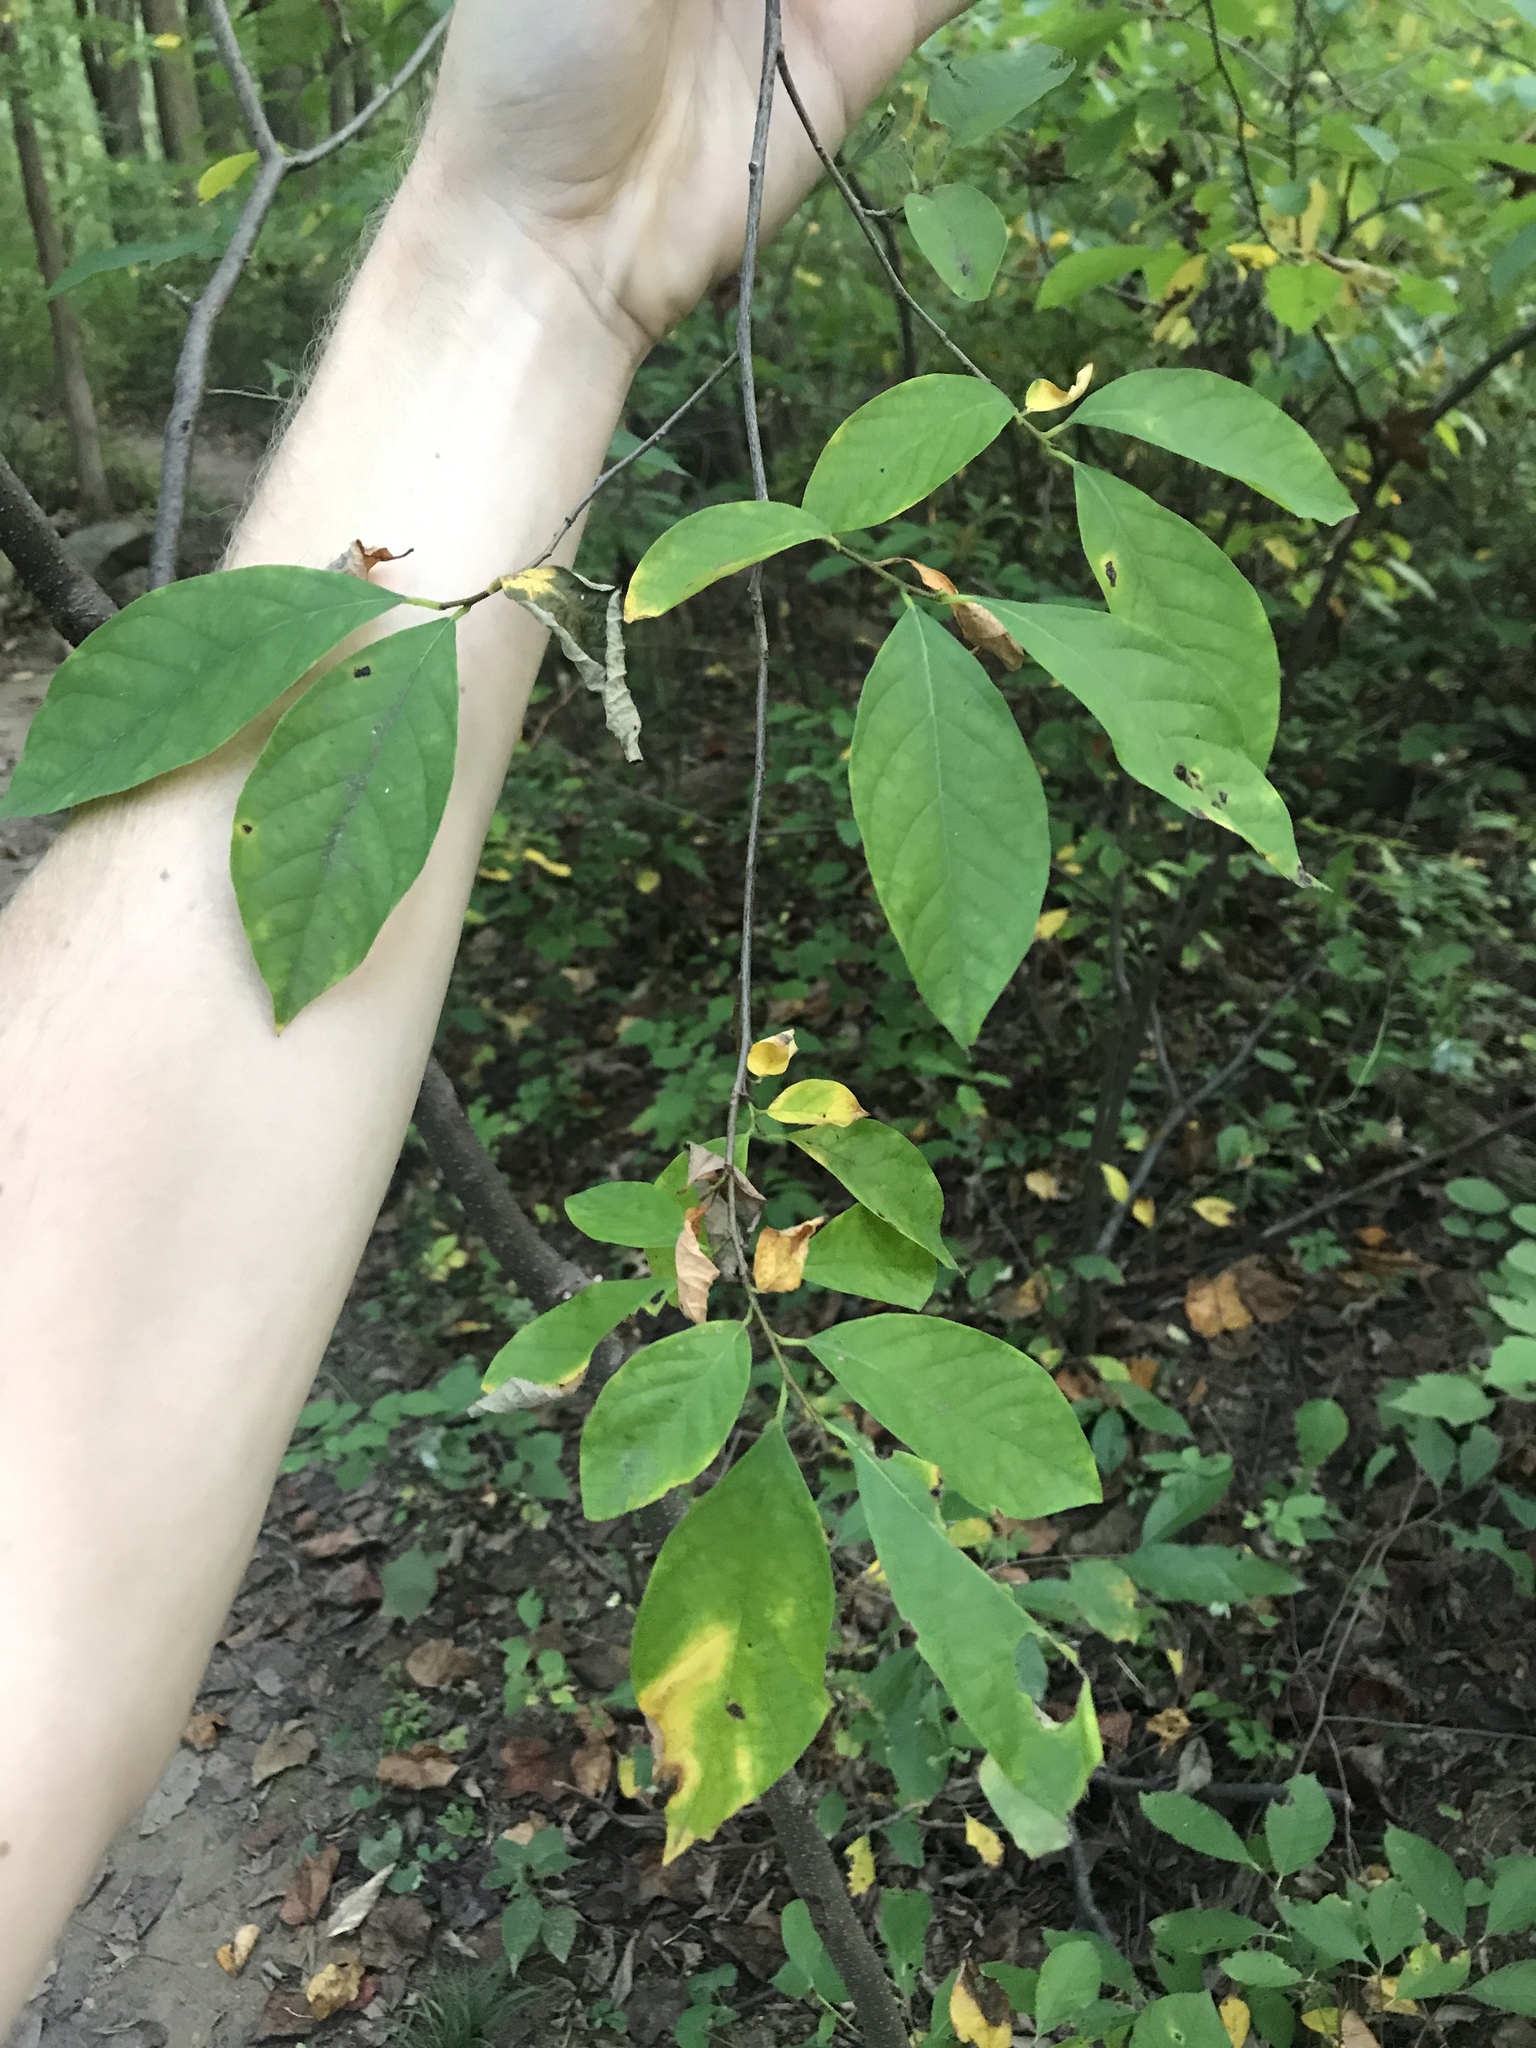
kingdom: Plantae
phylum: Tracheophyta
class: Magnoliopsida
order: Laurales
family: Lauraceae
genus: Lindera
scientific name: Lindera benzoin
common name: Spicebush
